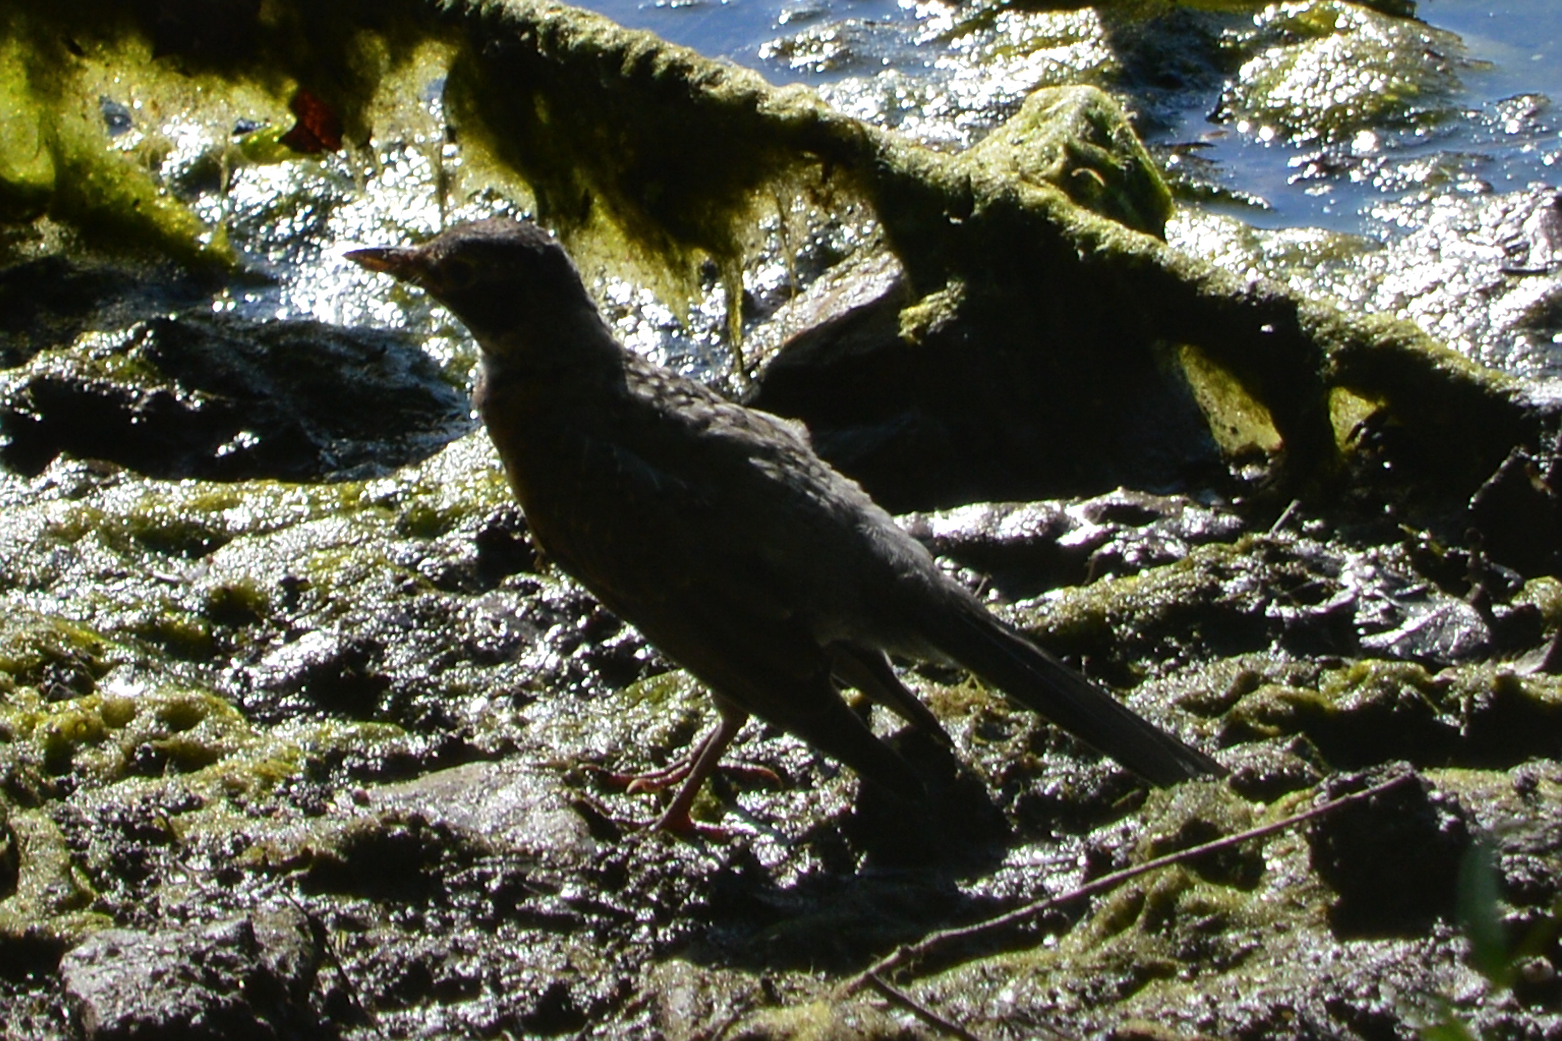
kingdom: Animalia
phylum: Chordata
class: Aves
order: Passeriformes
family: Turdidae
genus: Turdus
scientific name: Turdus migratorius
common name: American robin
